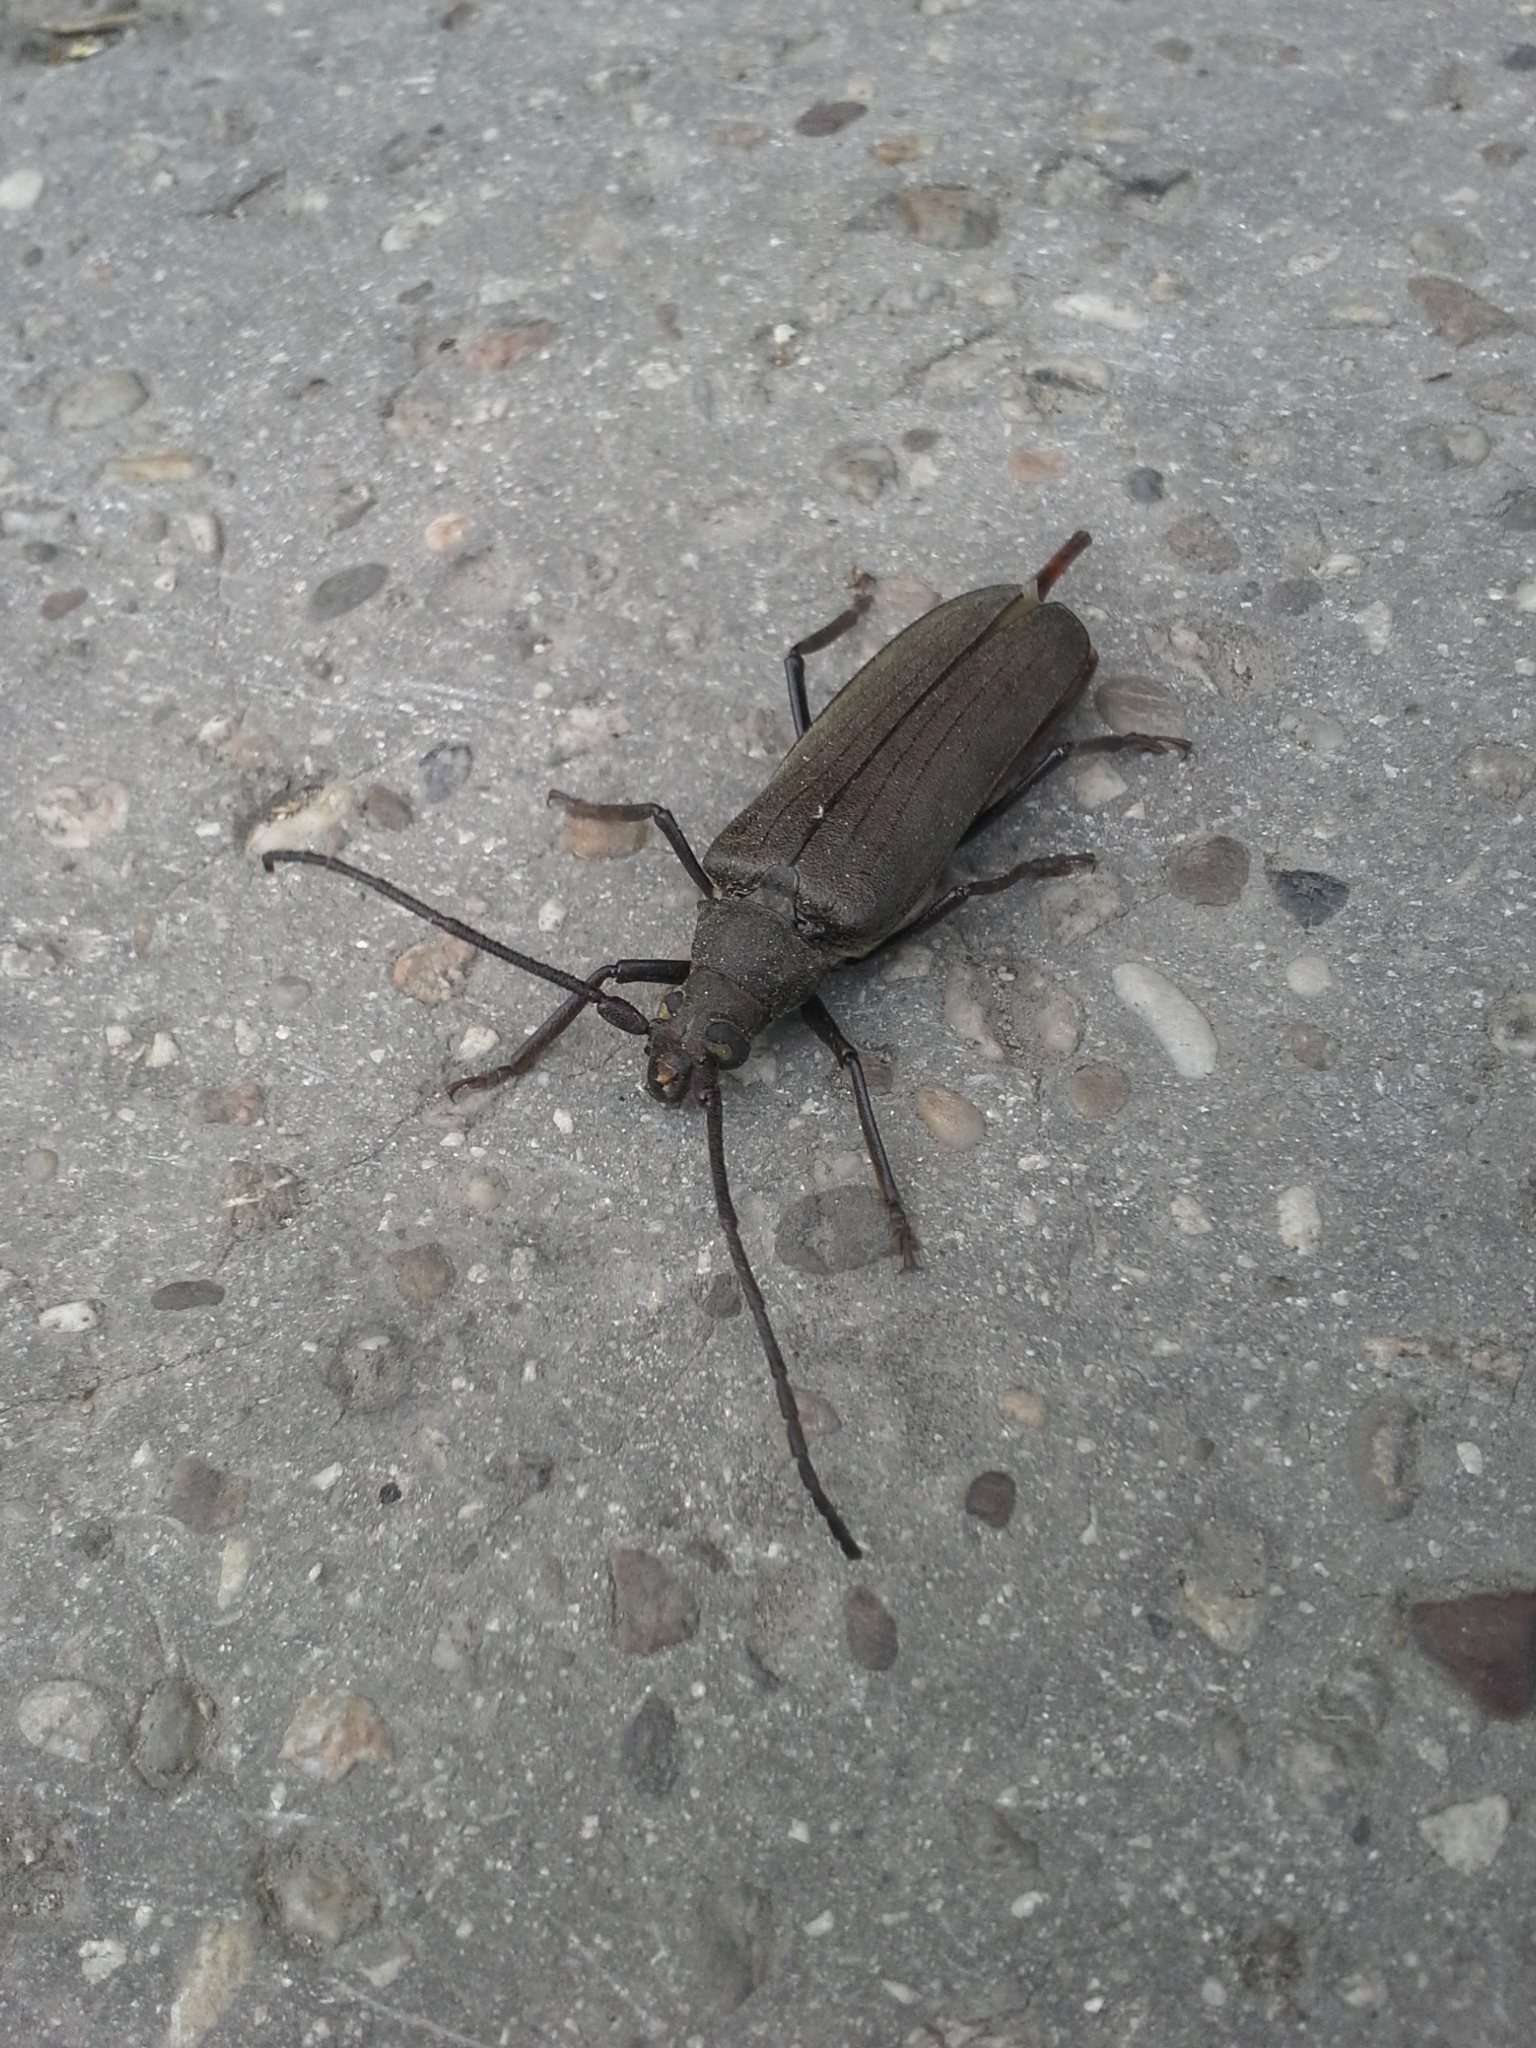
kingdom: Animalia
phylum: Arthropoda
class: Insecta
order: Coleoptera
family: Cerambycidae
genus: Aegosoma
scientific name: Aegosoma scabricorne
